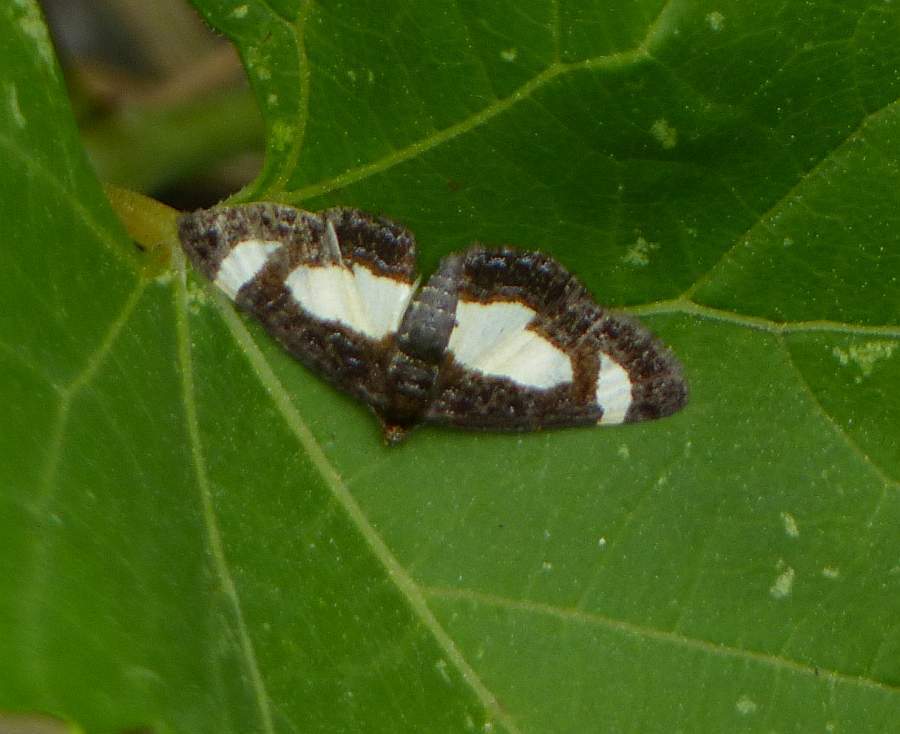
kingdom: Animalia
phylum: Arthropoda
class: Insecta
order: Lepidoptera
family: Geometridae
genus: Heliomata
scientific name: Heliomata cycladata
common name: Common spring moth
